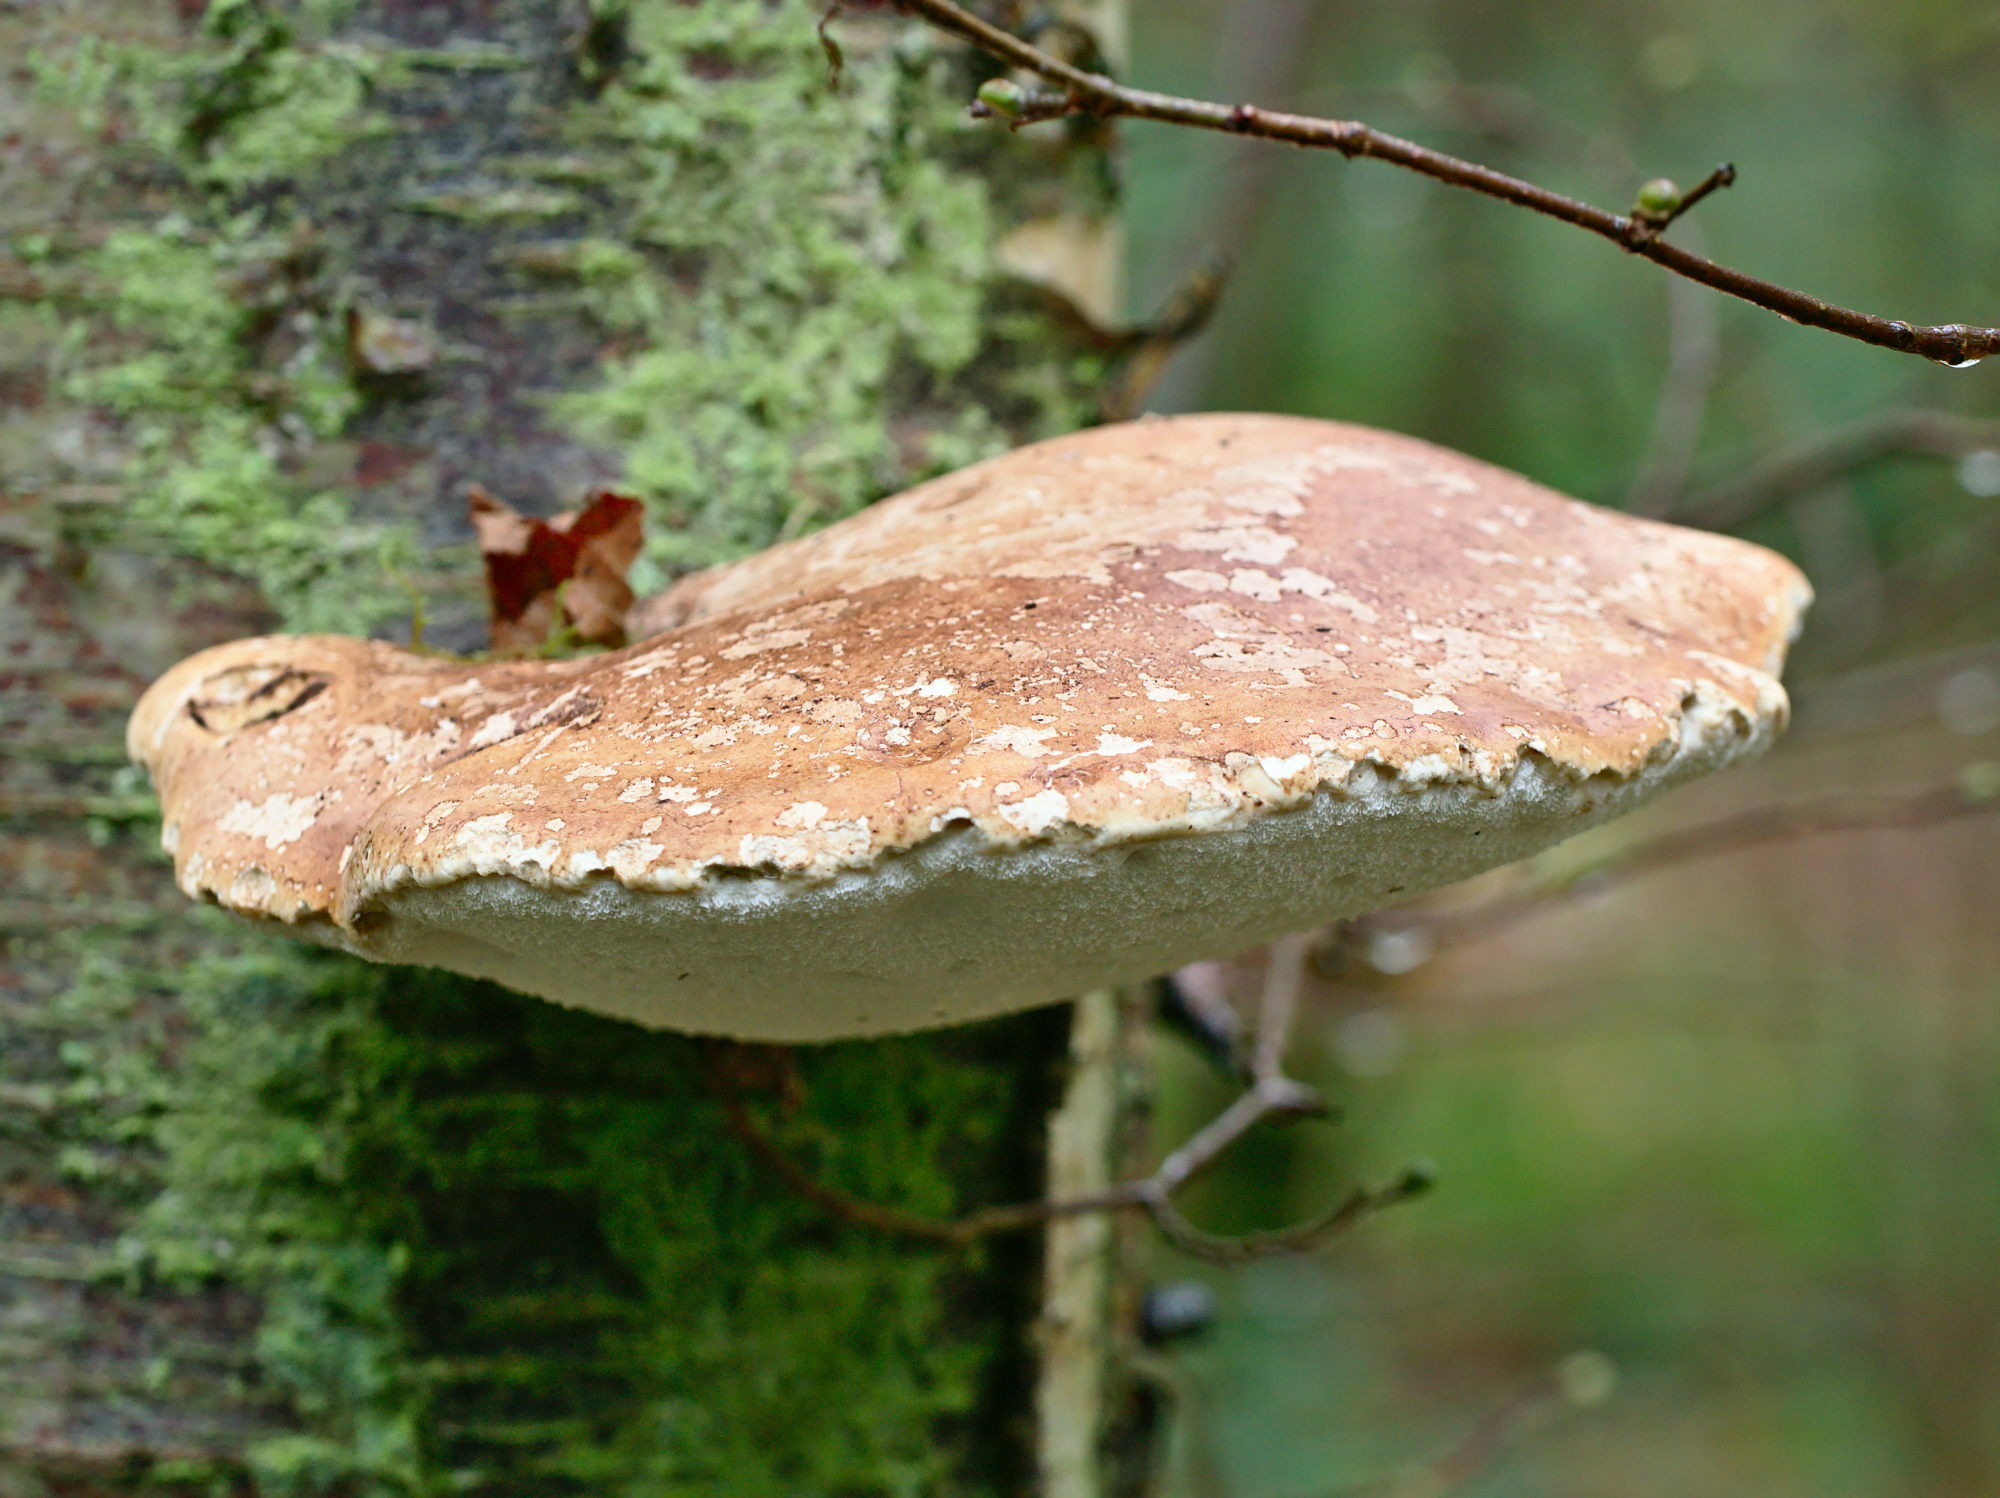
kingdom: Fungi
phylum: Basidiomycota
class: Agaricomycetes
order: Polyporales
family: Fomitopsidaceae
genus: Fomitopsis
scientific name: Fomitopsis betulina
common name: Birch polypore
